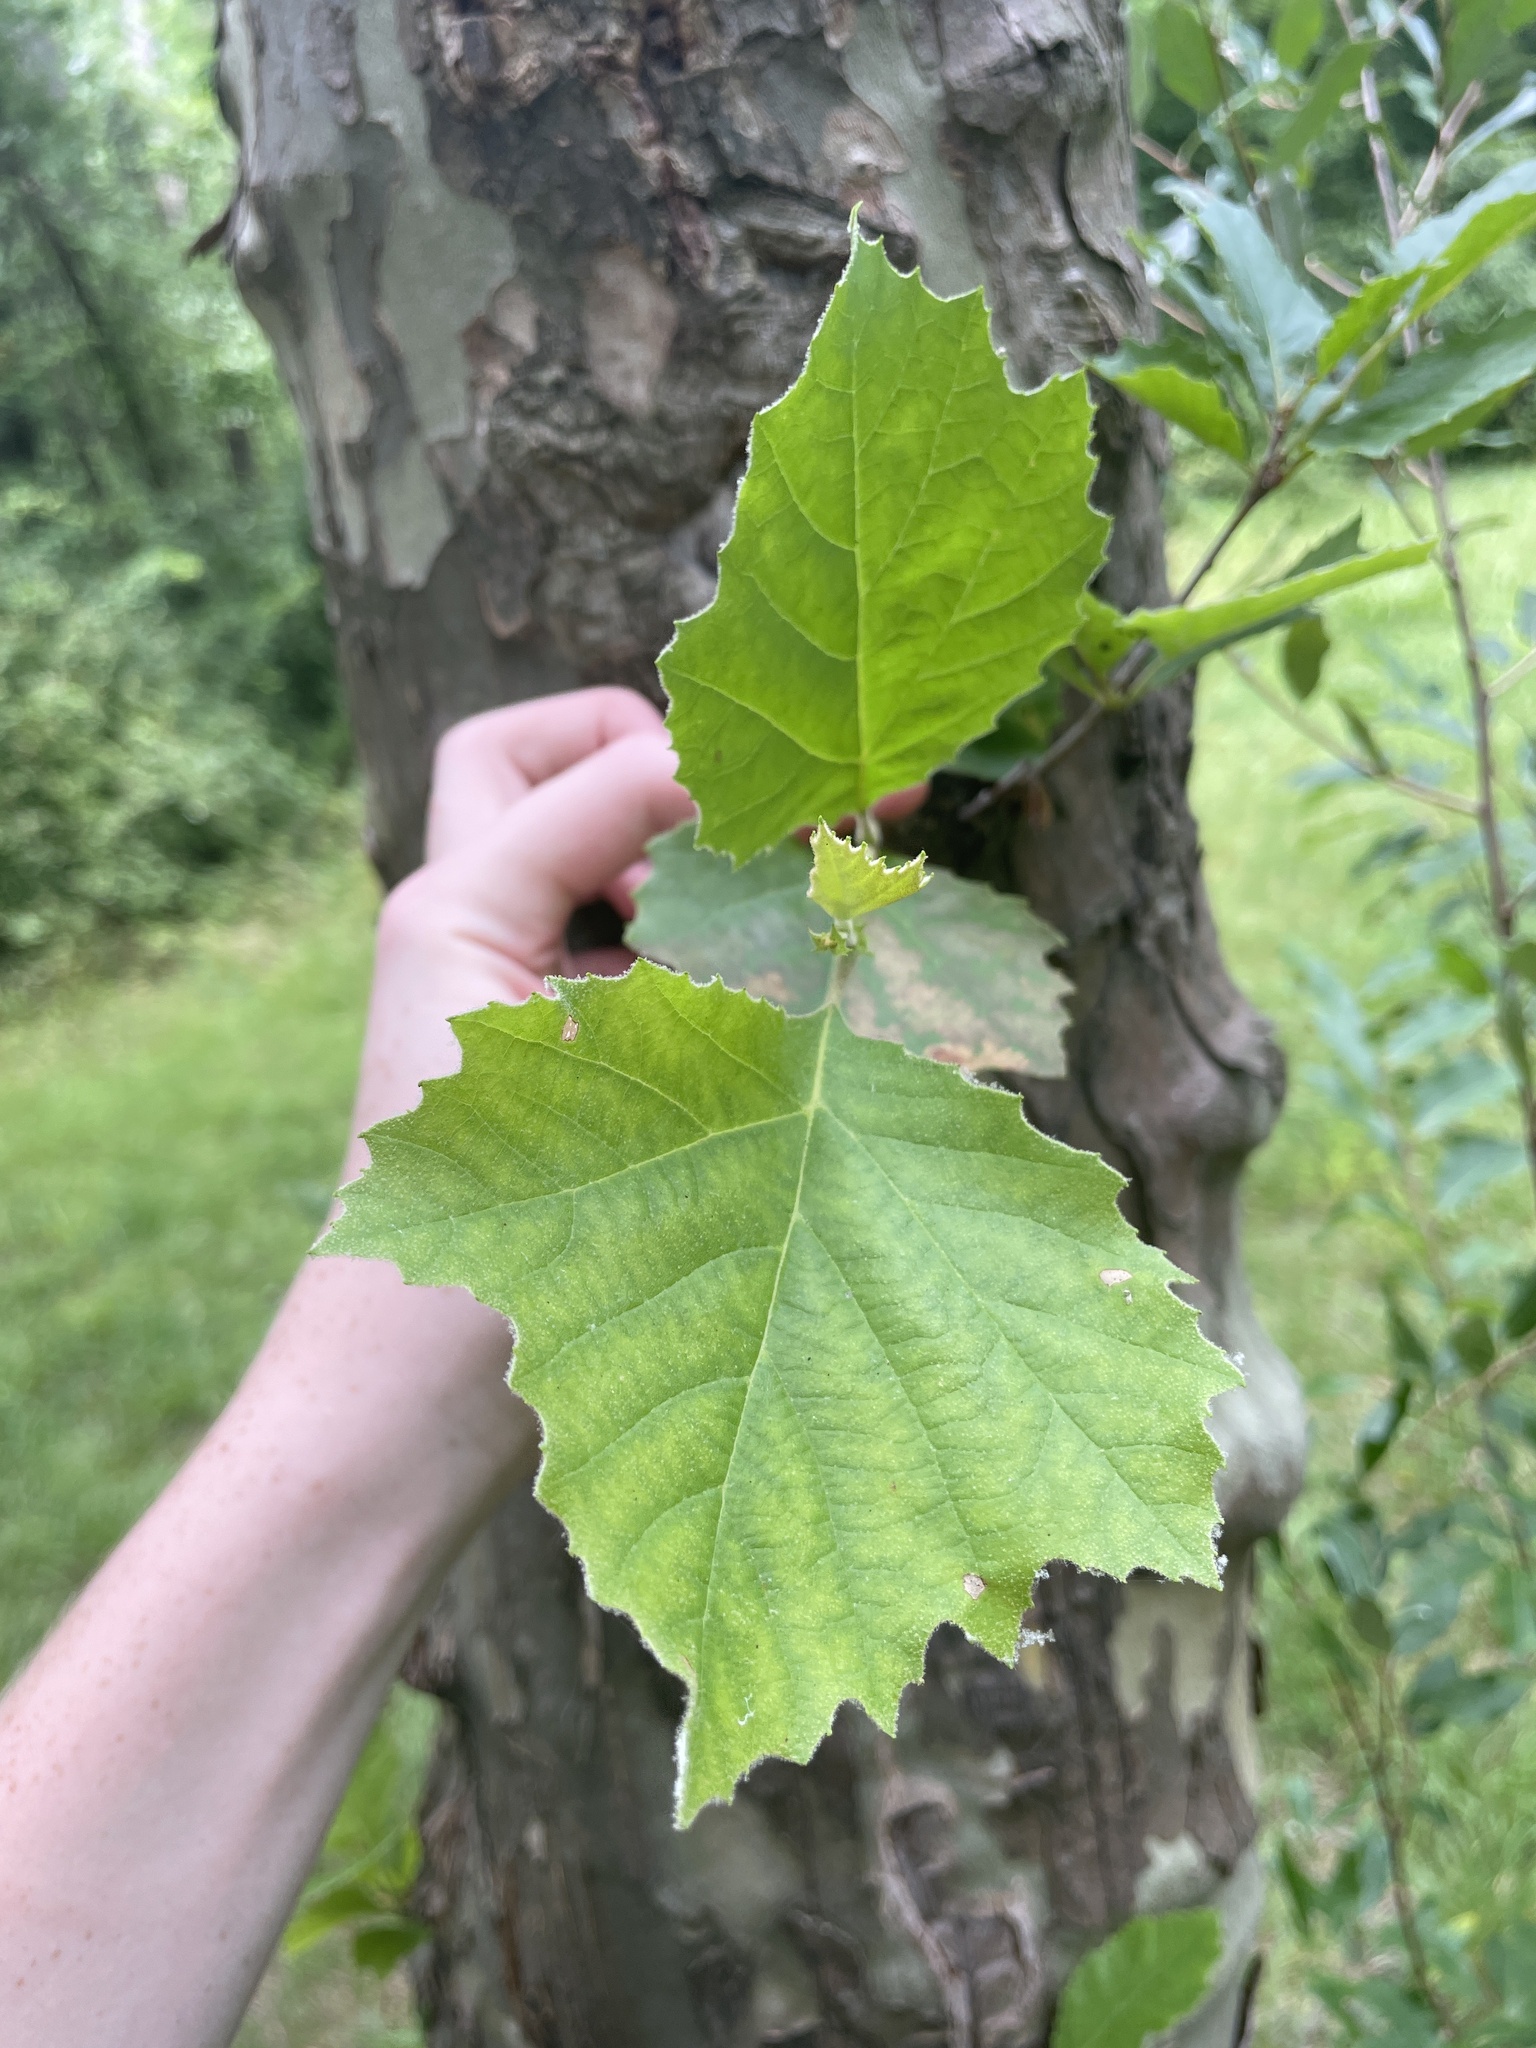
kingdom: Plantae
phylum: Tracheophyta
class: Magnoliopsida
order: Proteales
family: Platanaceae
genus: Platanus
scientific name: Platanus occidentalis
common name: American sycamore
